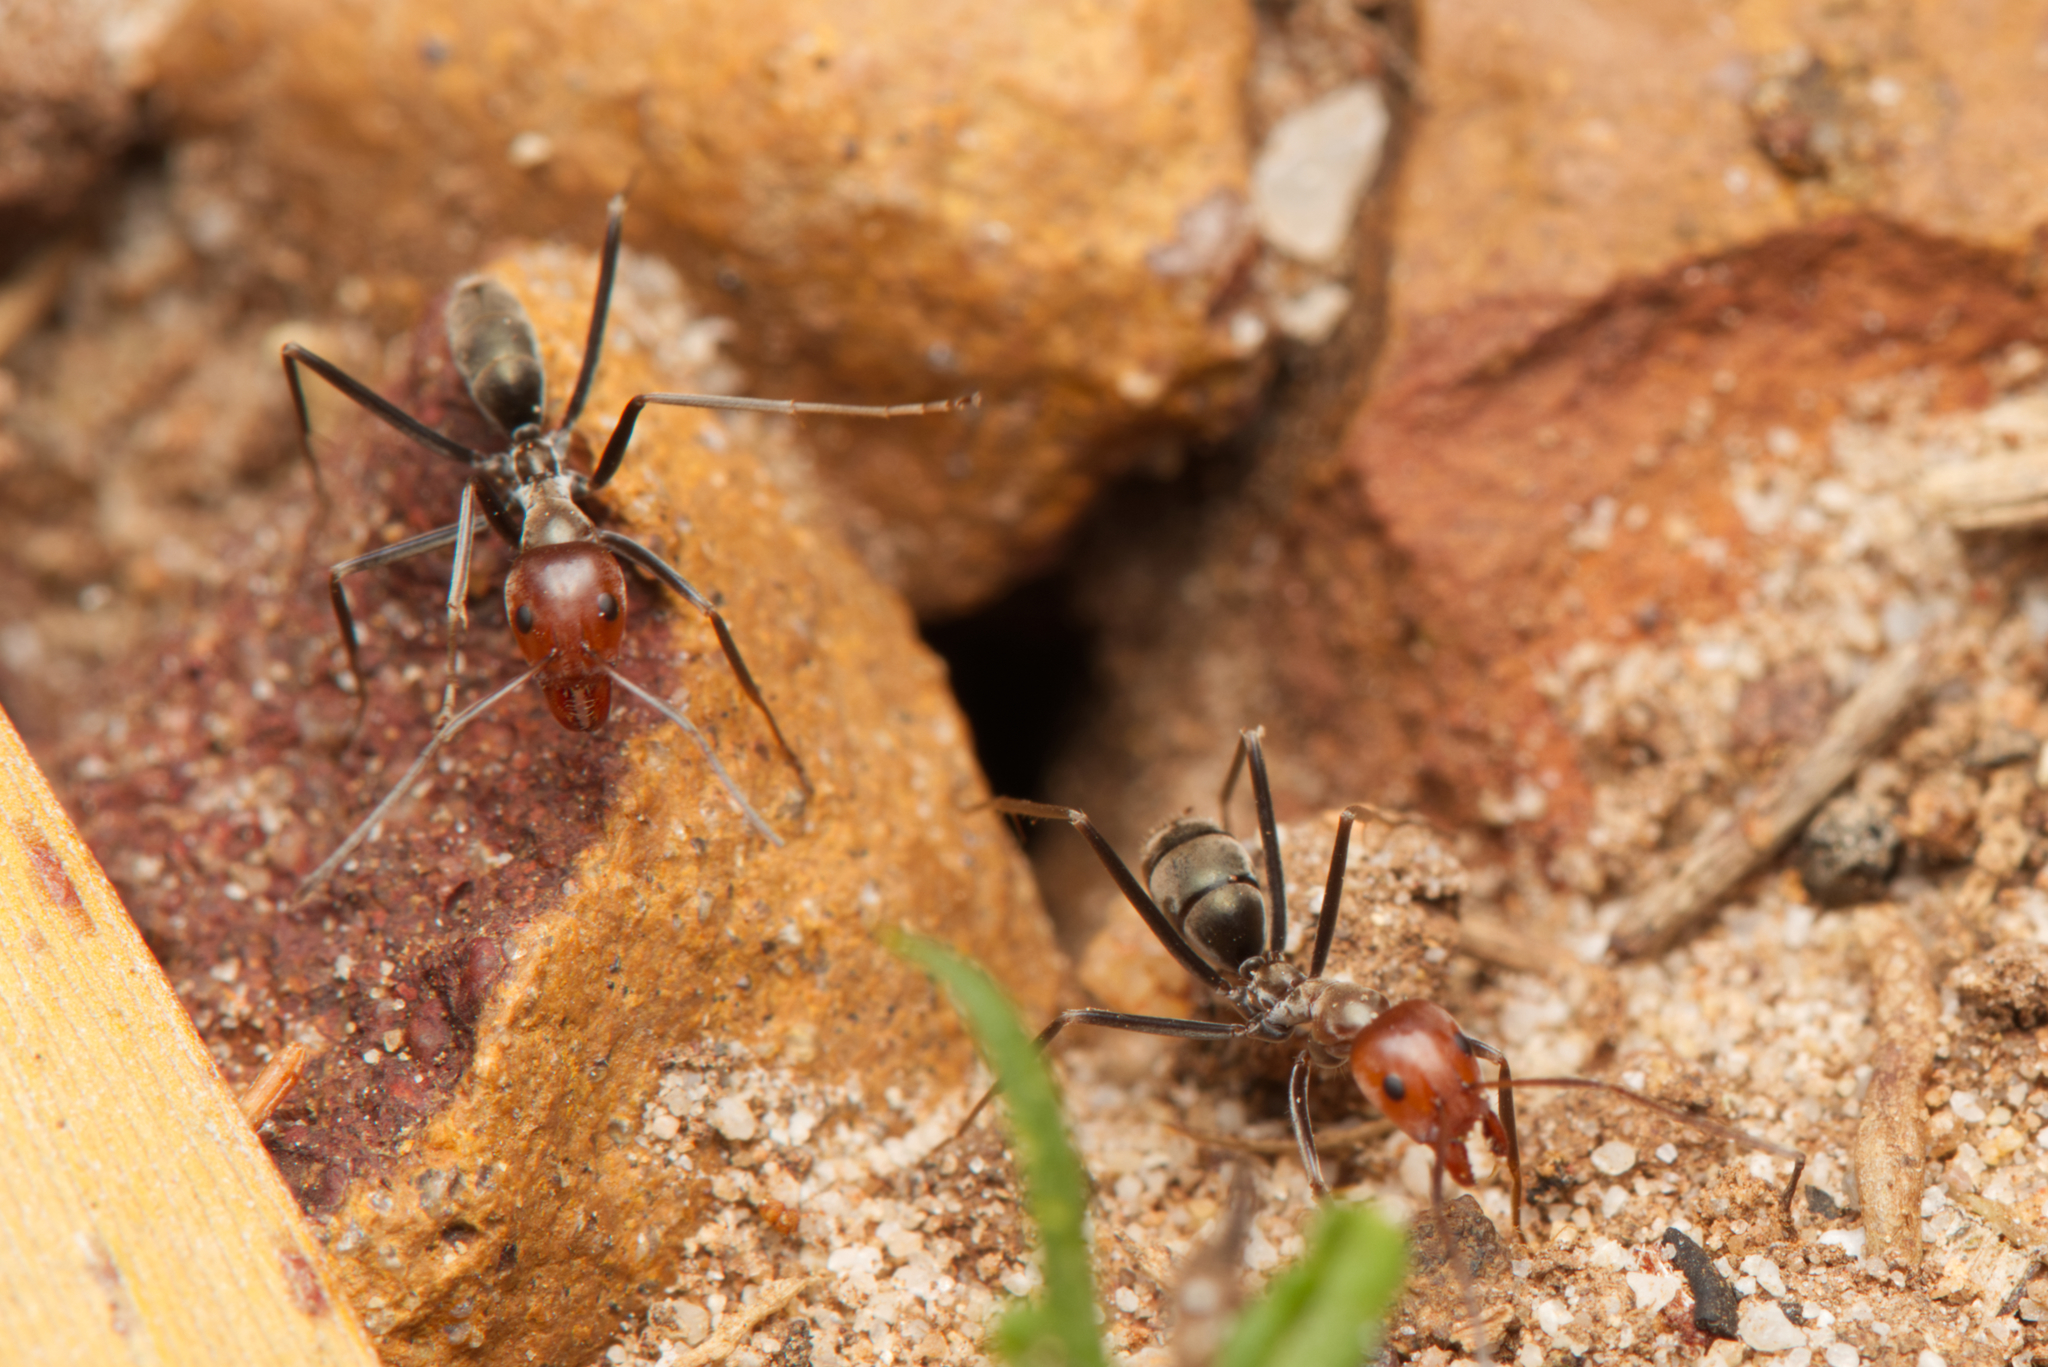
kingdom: Animalia
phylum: Arthropoda
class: Insecta
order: Hymenoptera
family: Formicidae
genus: Iridomyrmex
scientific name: Iridomyrmex
